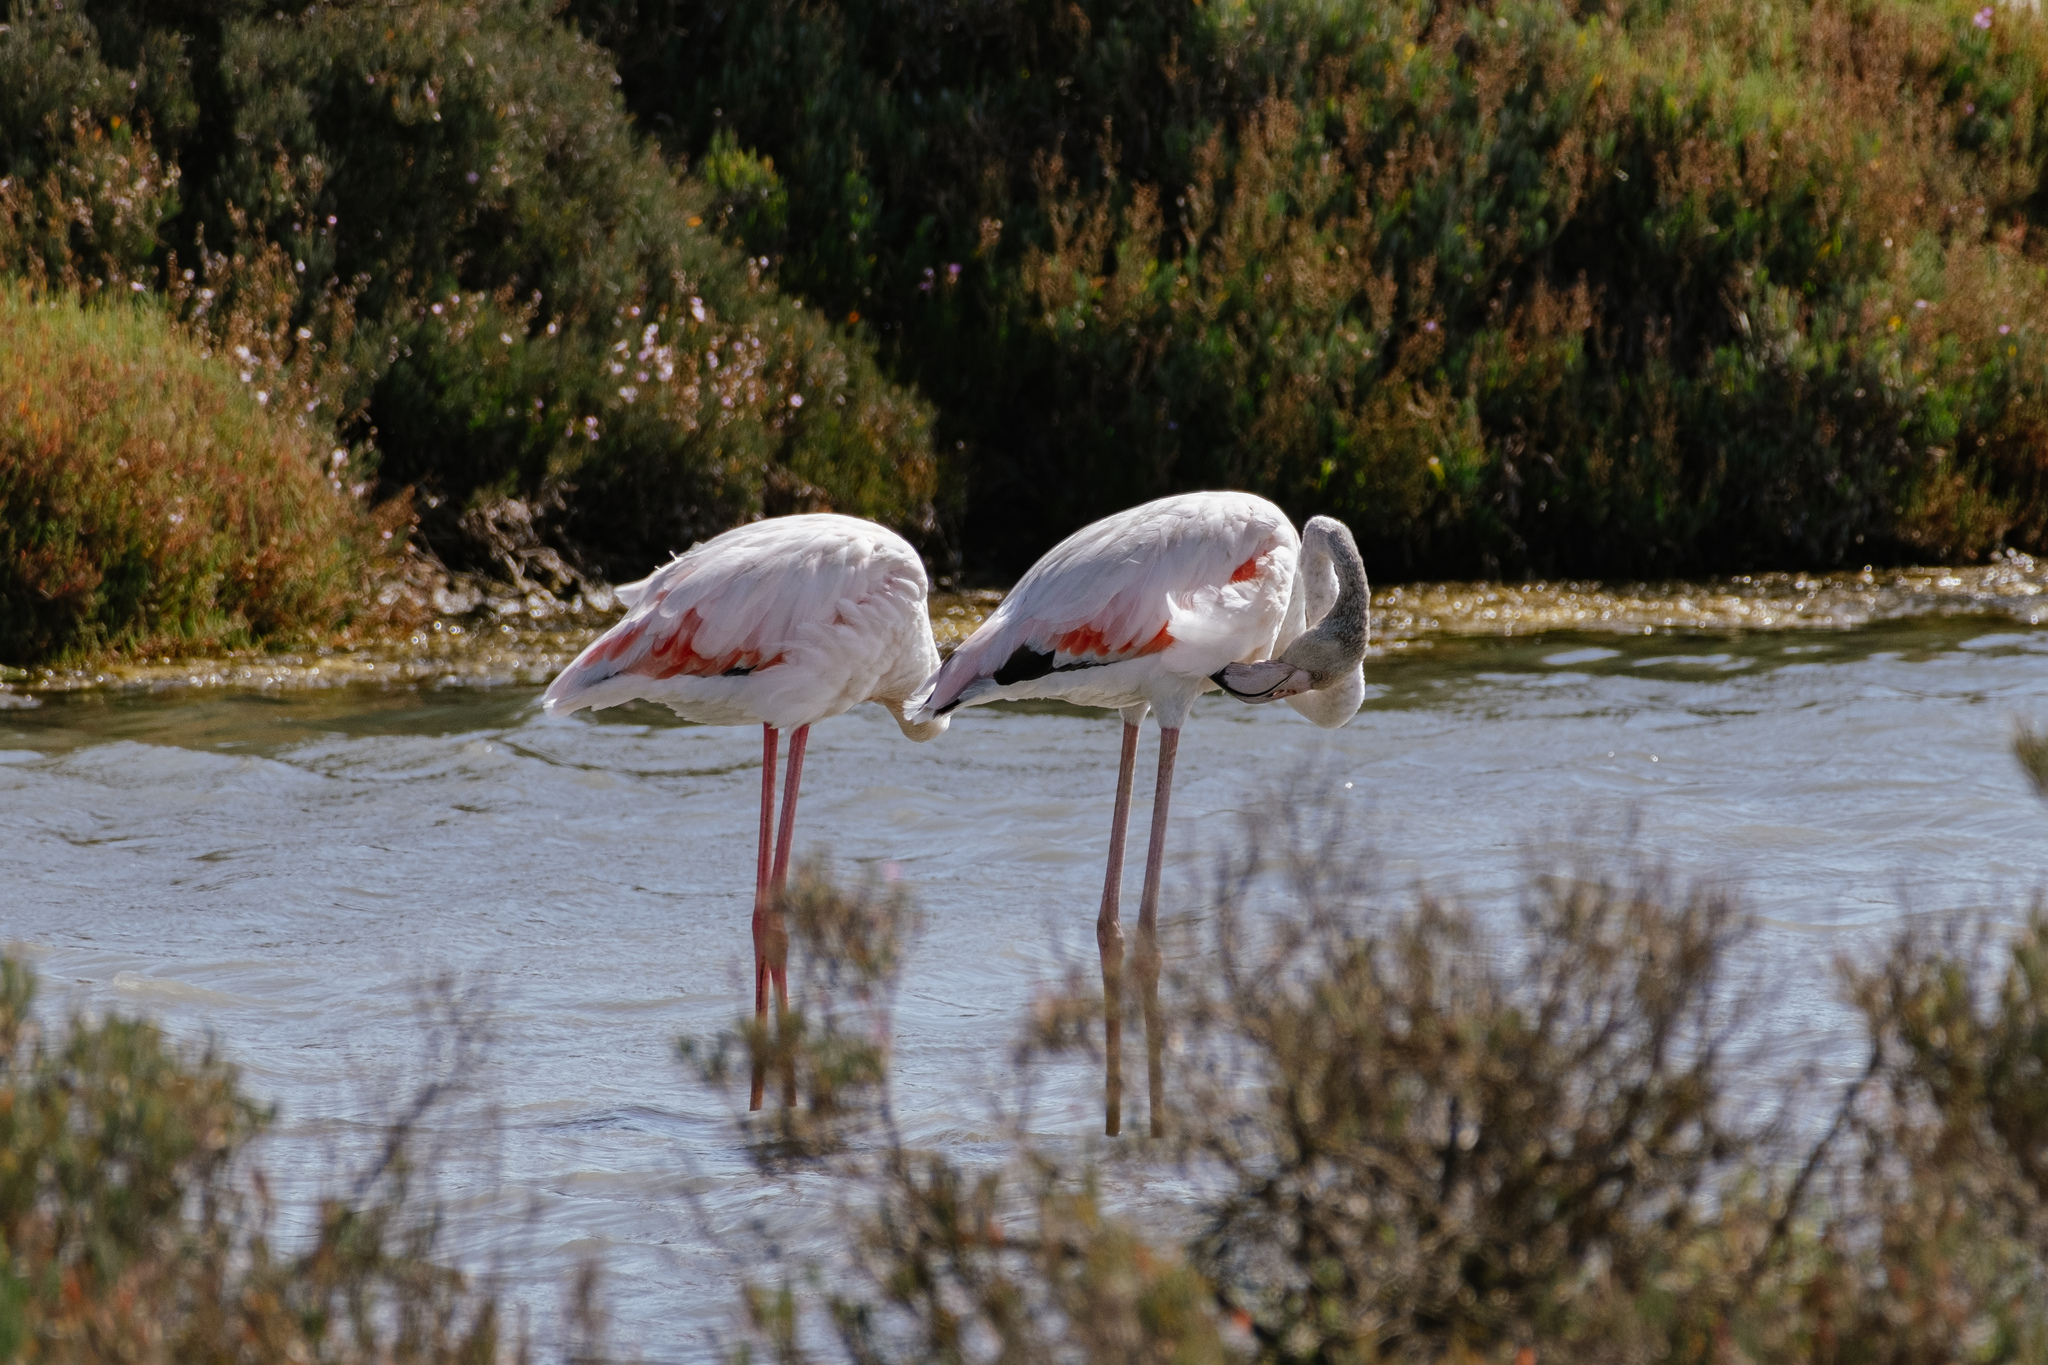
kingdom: Animalia
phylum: Chordata
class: Aves
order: Phoenicopteriformes
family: Phoenicopteridae
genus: Phoenicopterus
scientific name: Phoenicopterus roseus
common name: Greater flamingo
